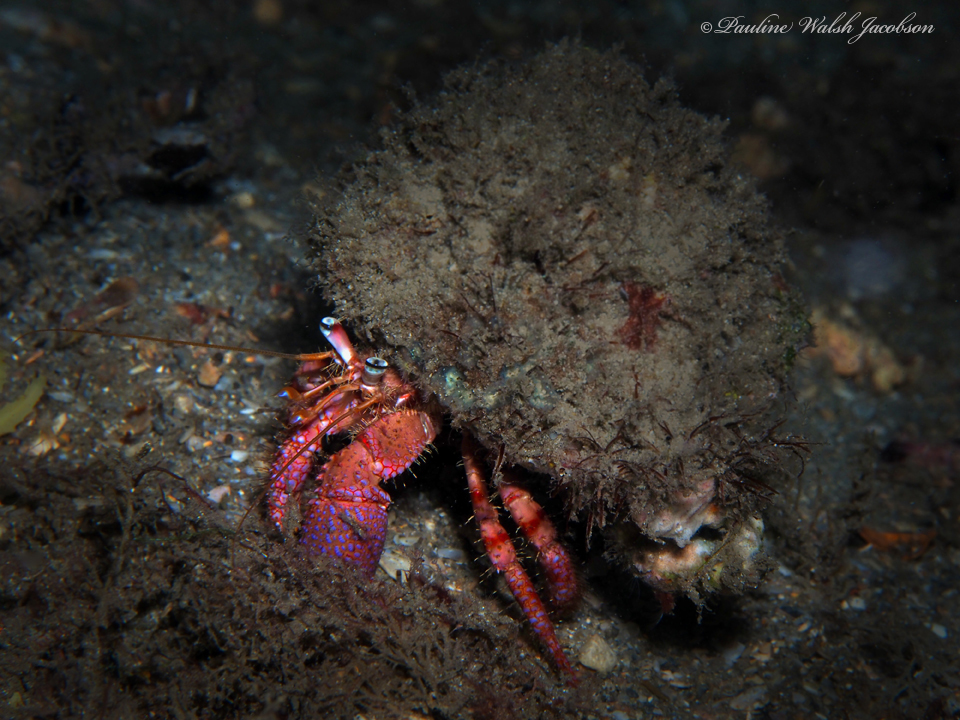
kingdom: Animalia
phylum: Arthropoda
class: Malacostraca
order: Decapoda
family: Diogenidae
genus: Dardanus
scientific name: Dardanus fucosus
